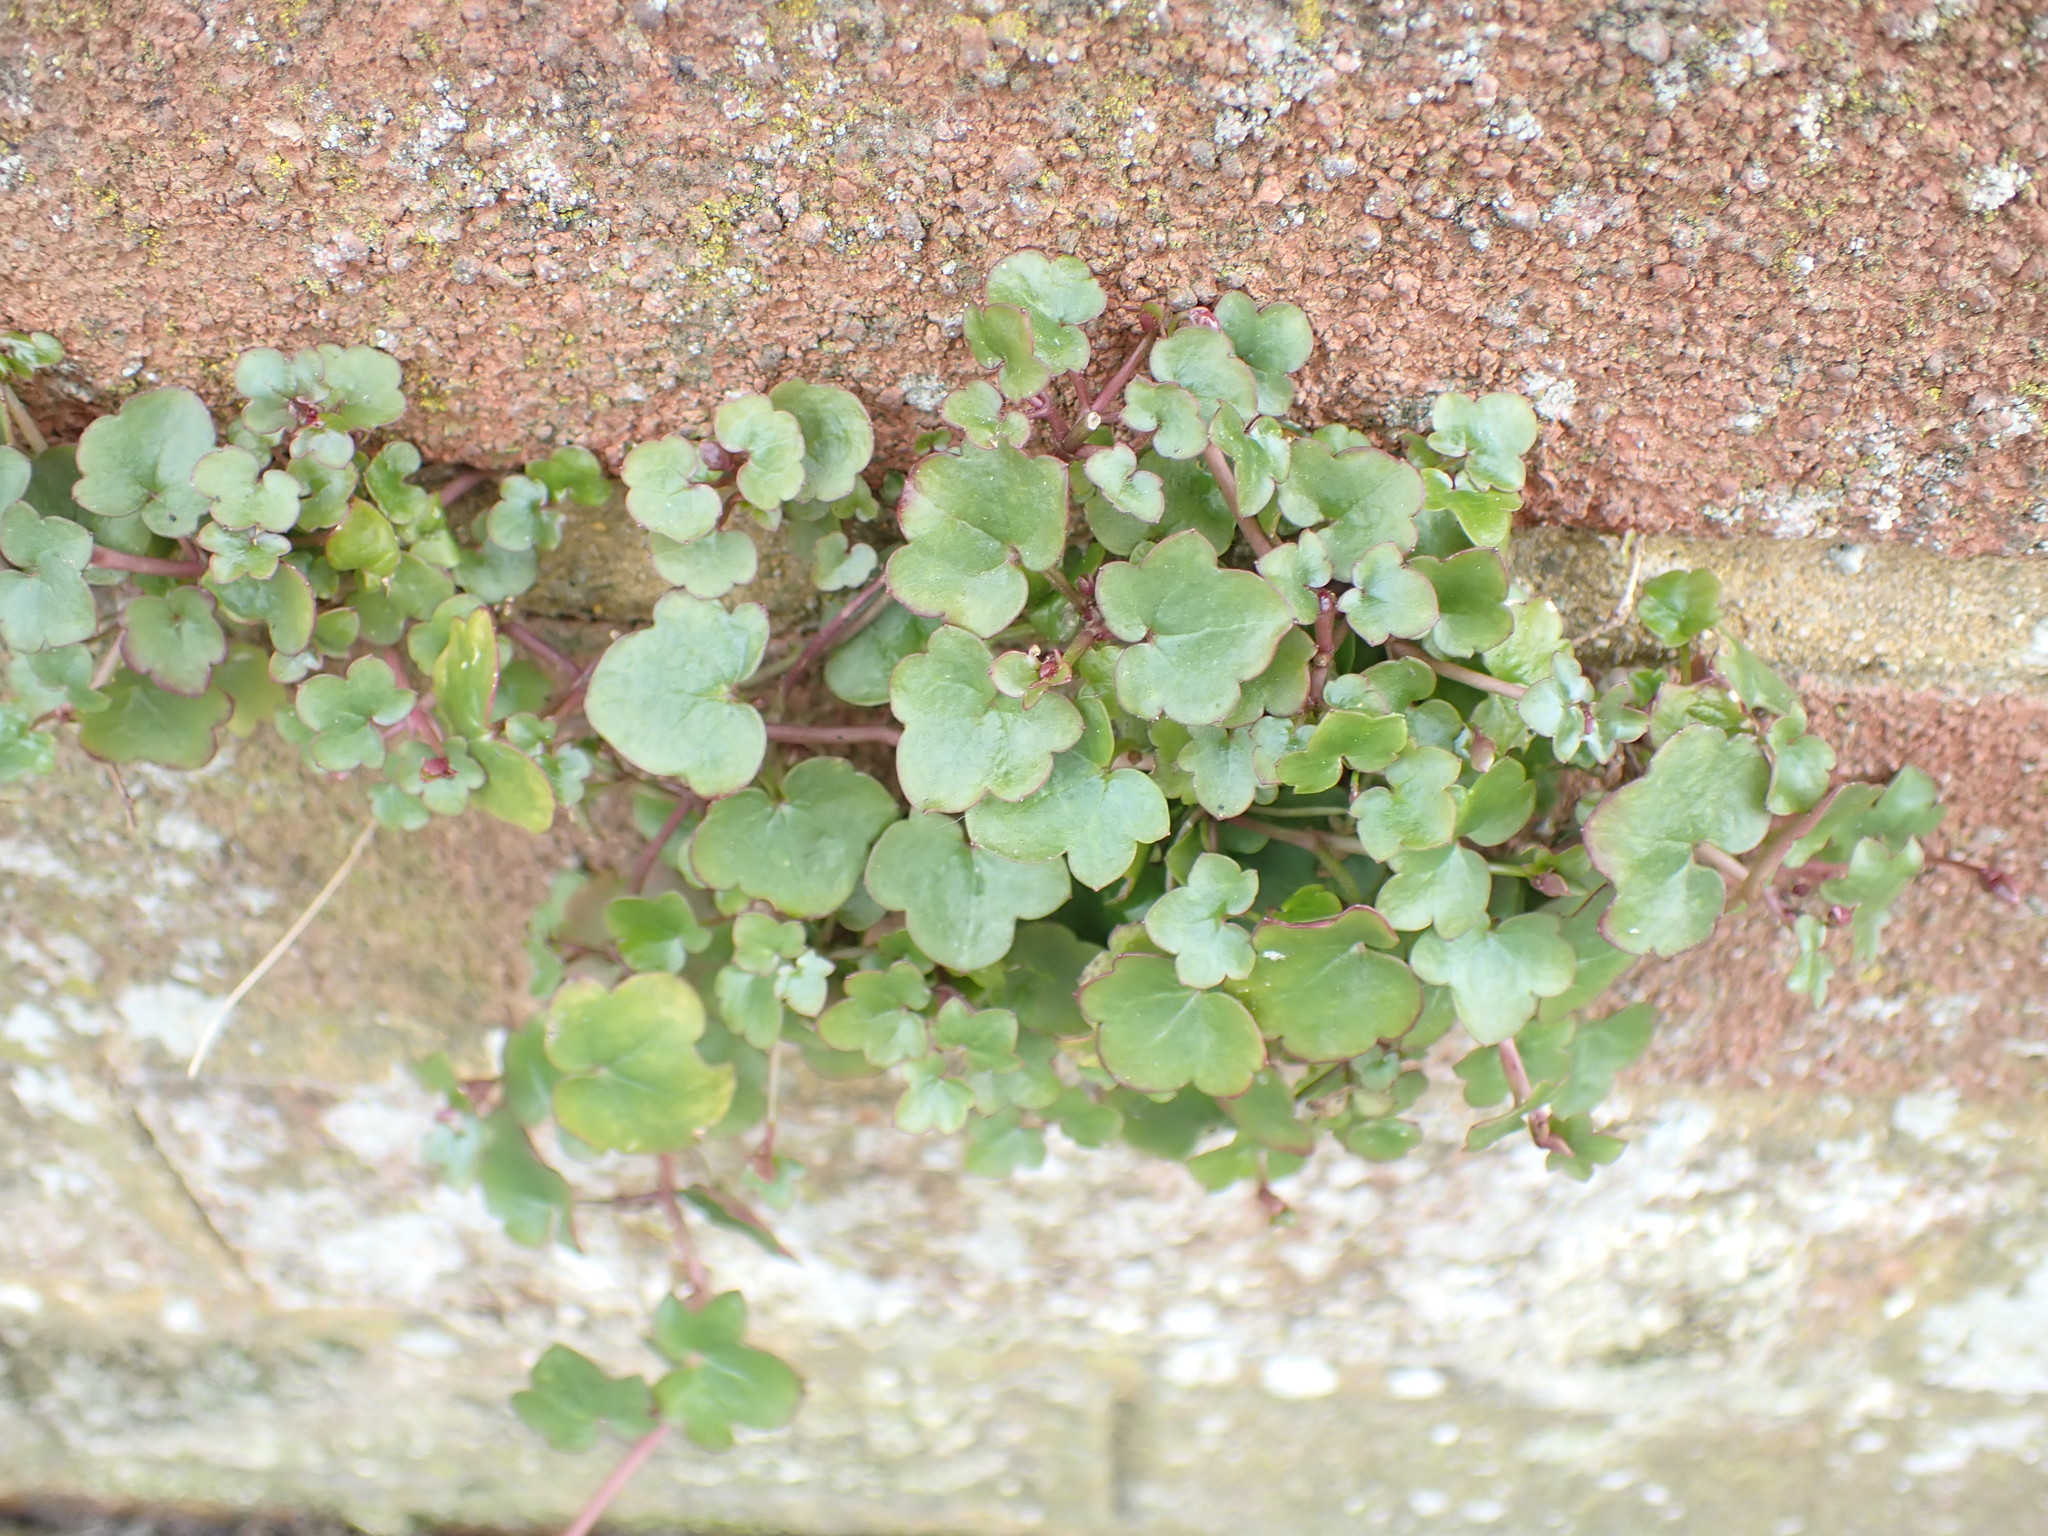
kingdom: Plantae
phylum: Tracheophyta
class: Magnoliopsida
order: Lamiales
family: Plantaginaceae
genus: Cymbalaria
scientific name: Cymbalaria muralis
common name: Ivy-leaved toadflax
